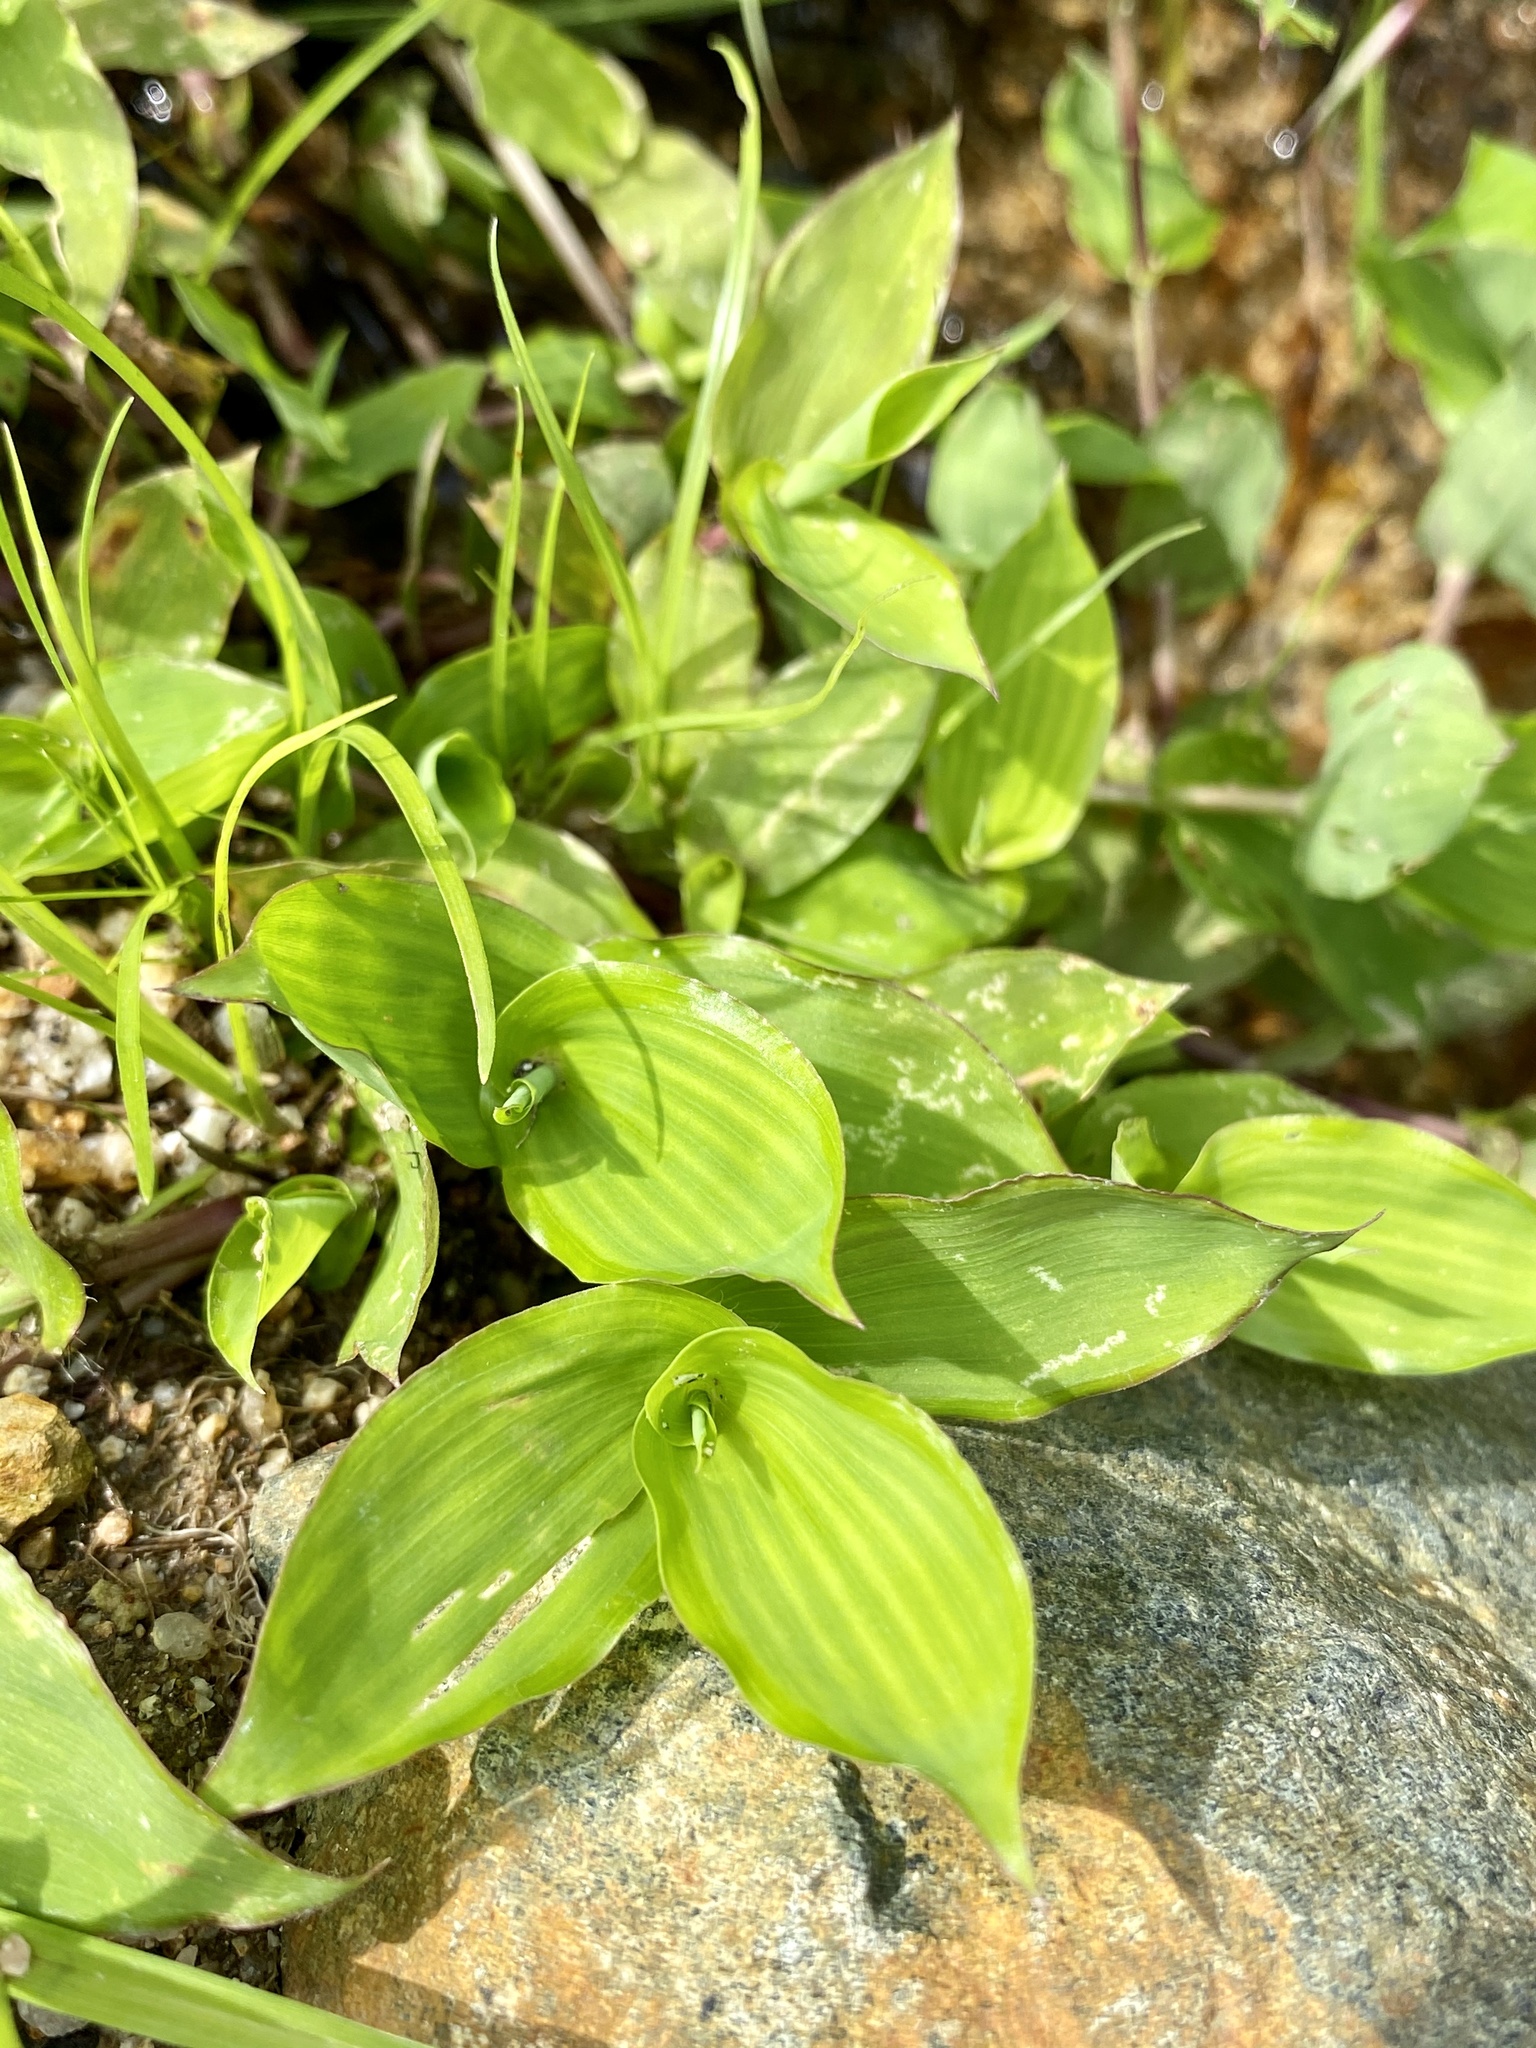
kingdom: Plantae
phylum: Tracheophyta
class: Liliopsida
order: Poales
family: Poaceae
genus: Arthraxon
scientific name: Arthraxon hispidus
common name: Small carpgrass
